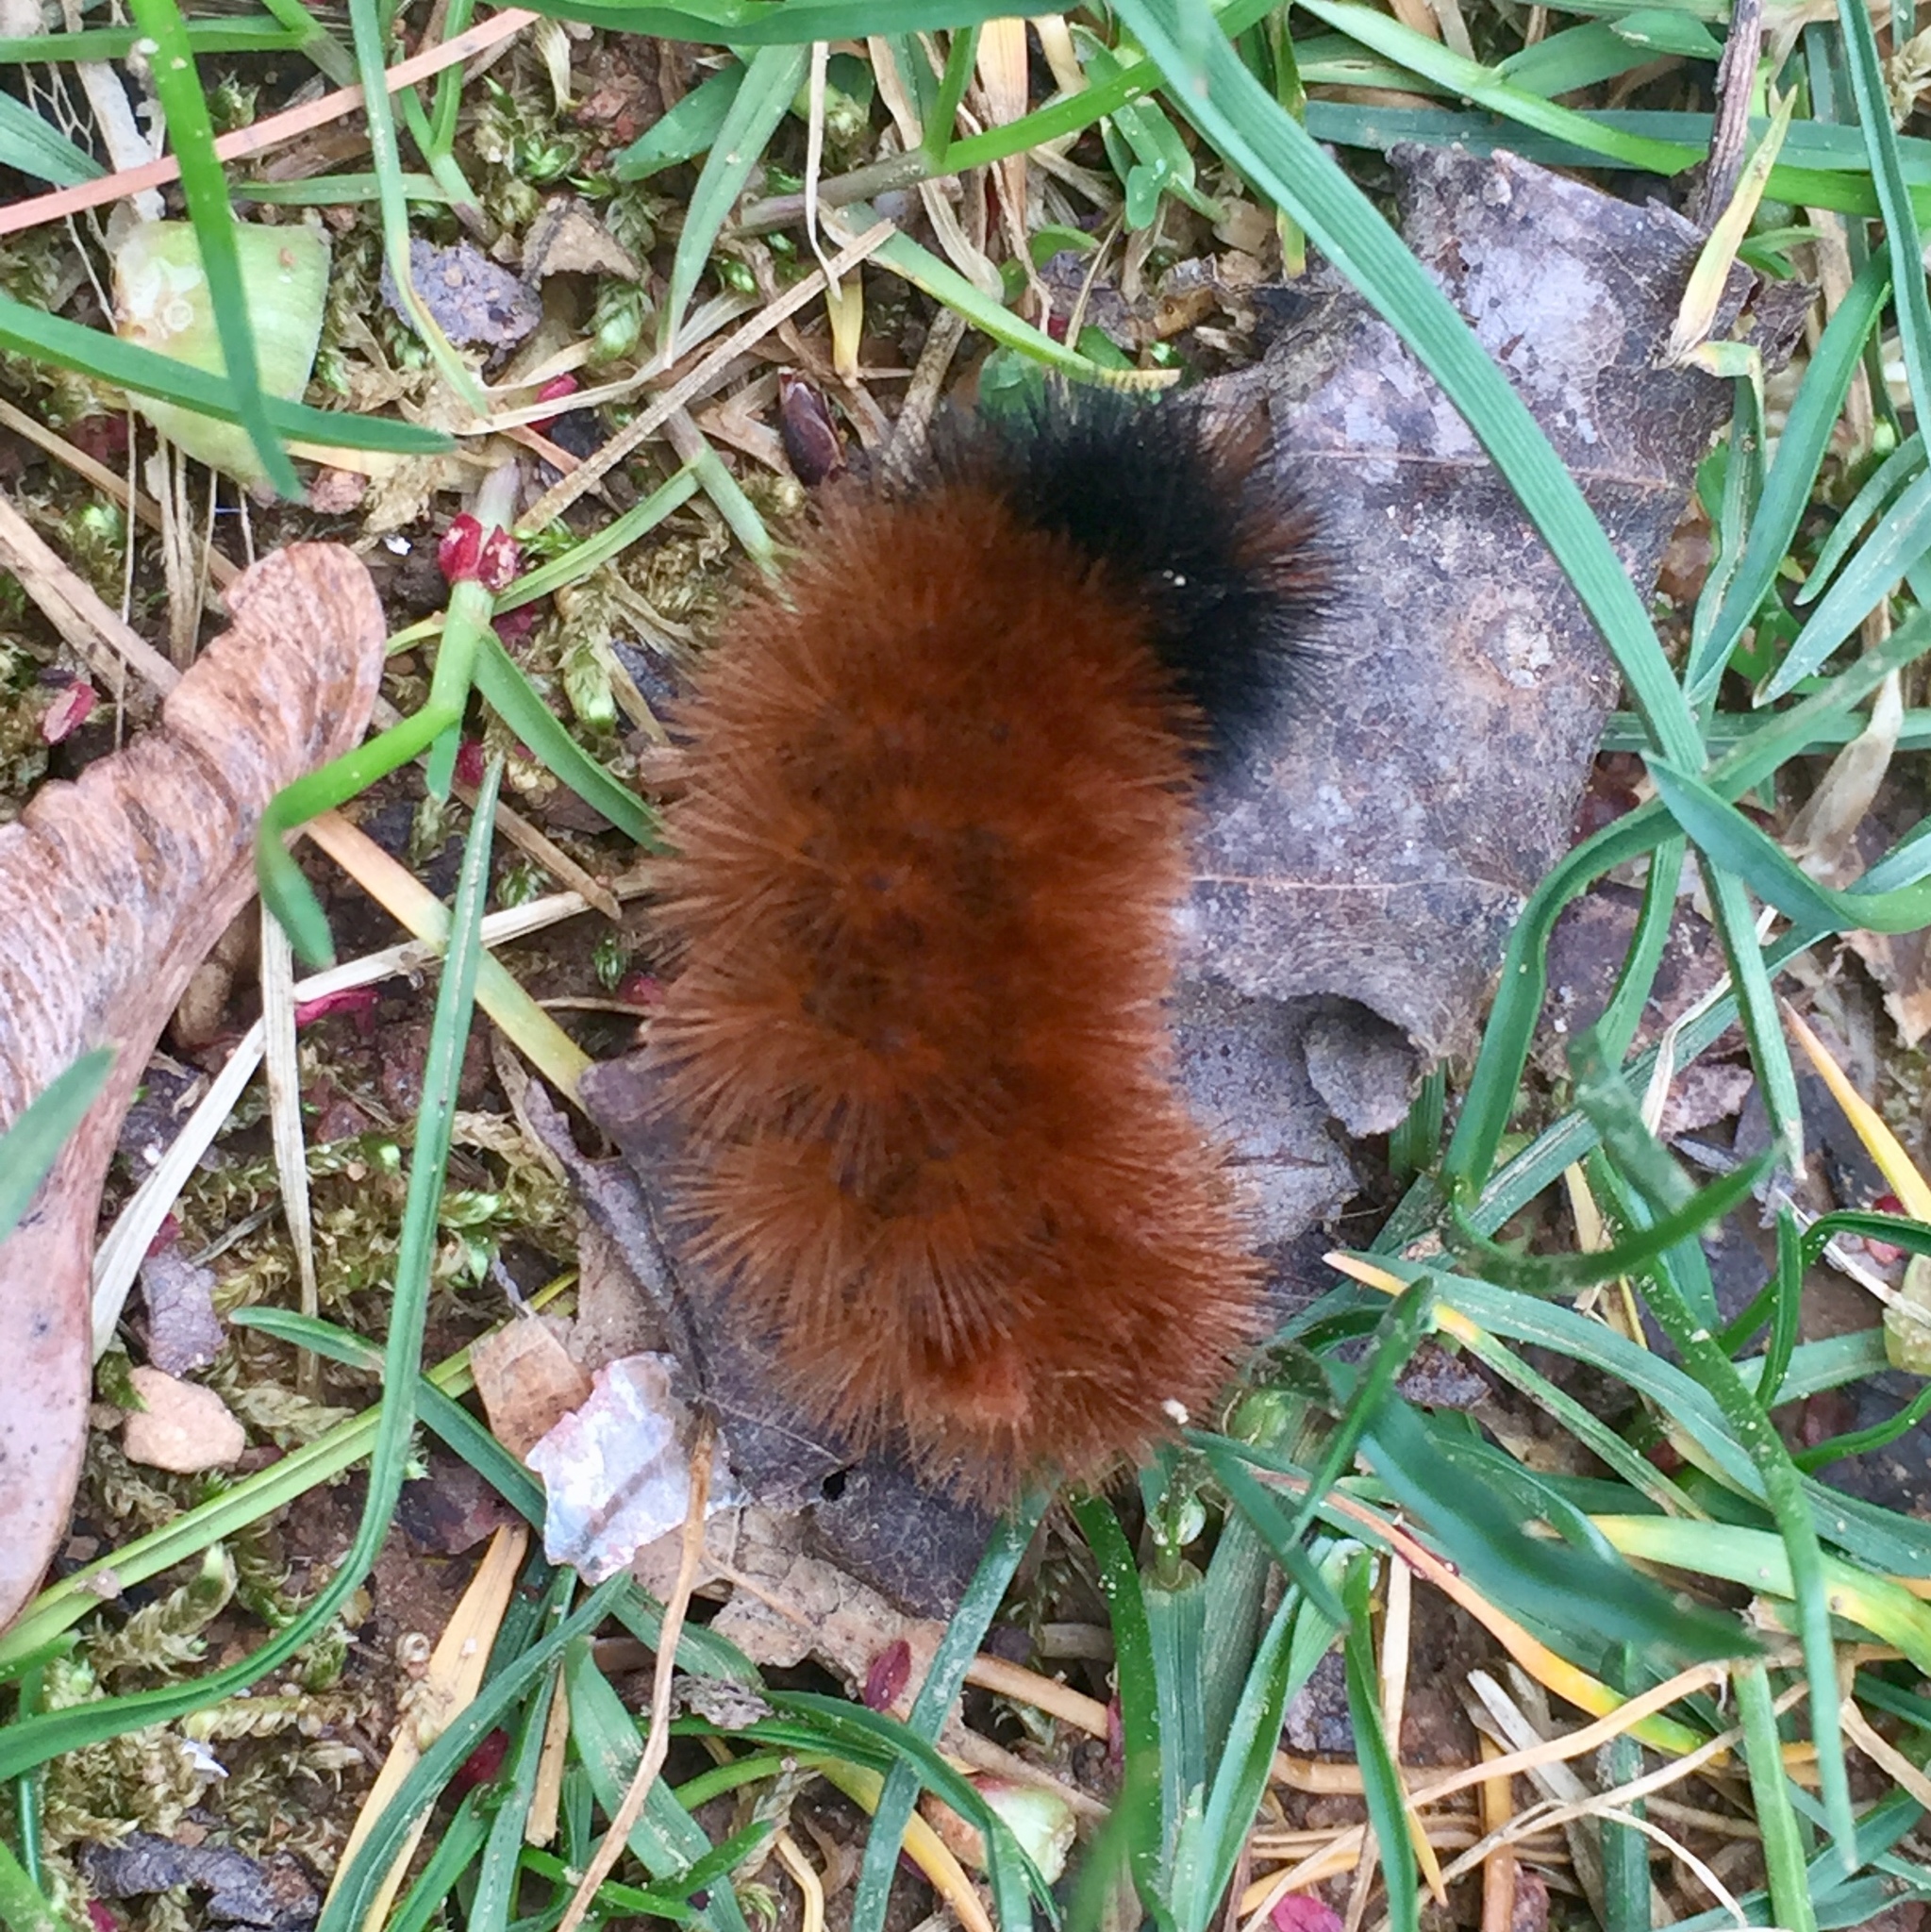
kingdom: Animalia
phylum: Arthropoda
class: Insecta
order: Lepidoptera
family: Erebidae
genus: Pyrrharctia
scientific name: Pyrrharctia isabella
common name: Isabella tiger moth
